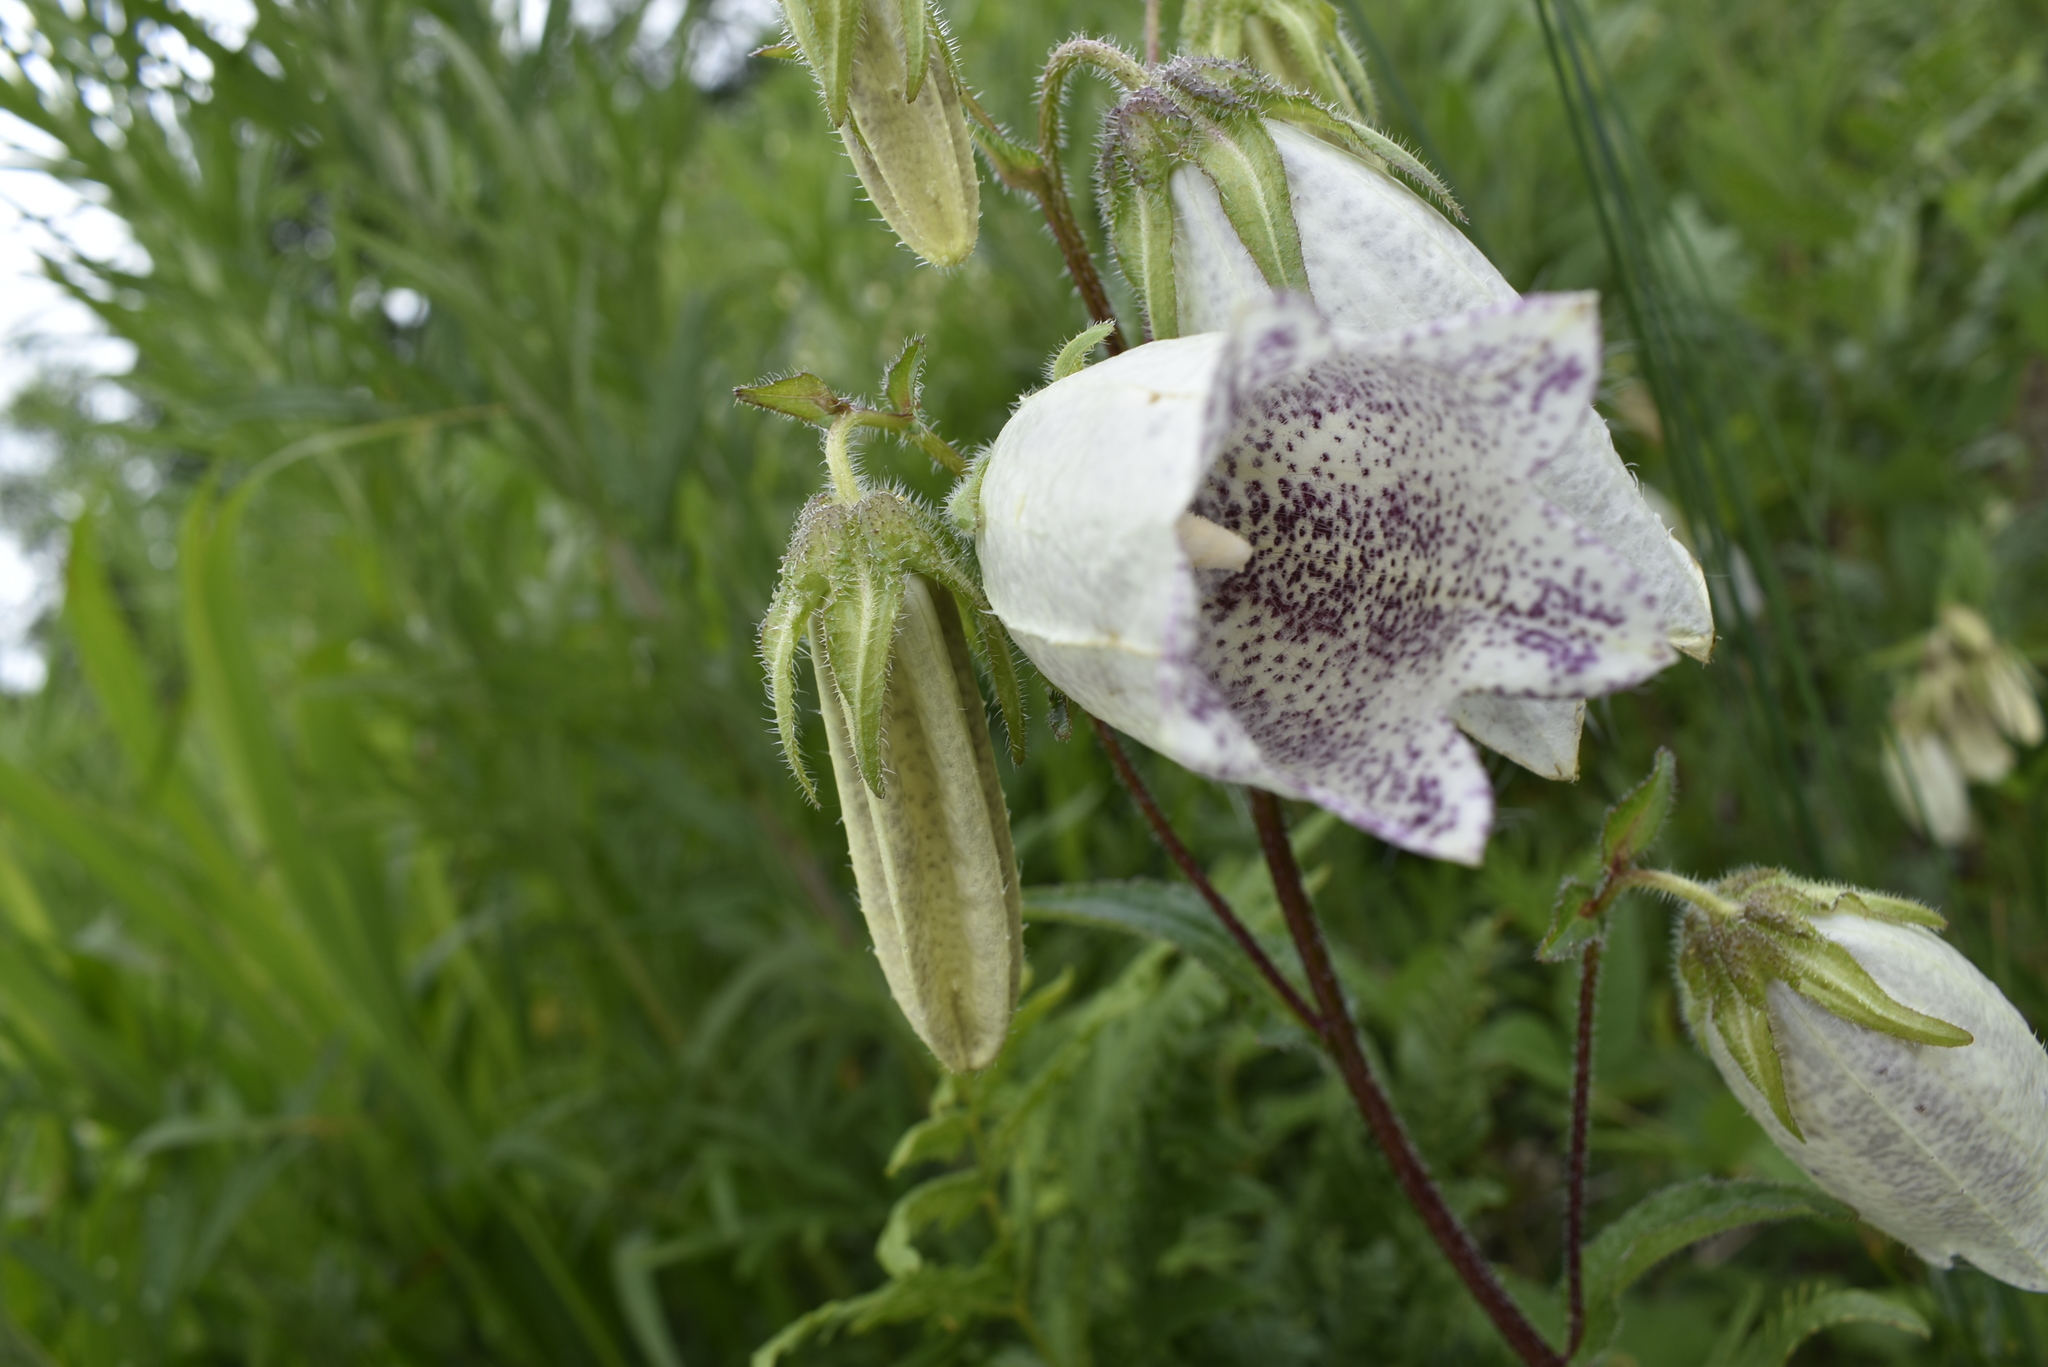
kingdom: Plantae
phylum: Tracheophyta
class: Magnoliopsida
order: Asterales
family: Campanulaceae
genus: Campanula
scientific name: Campanula punctata
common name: Spotted bellflower
